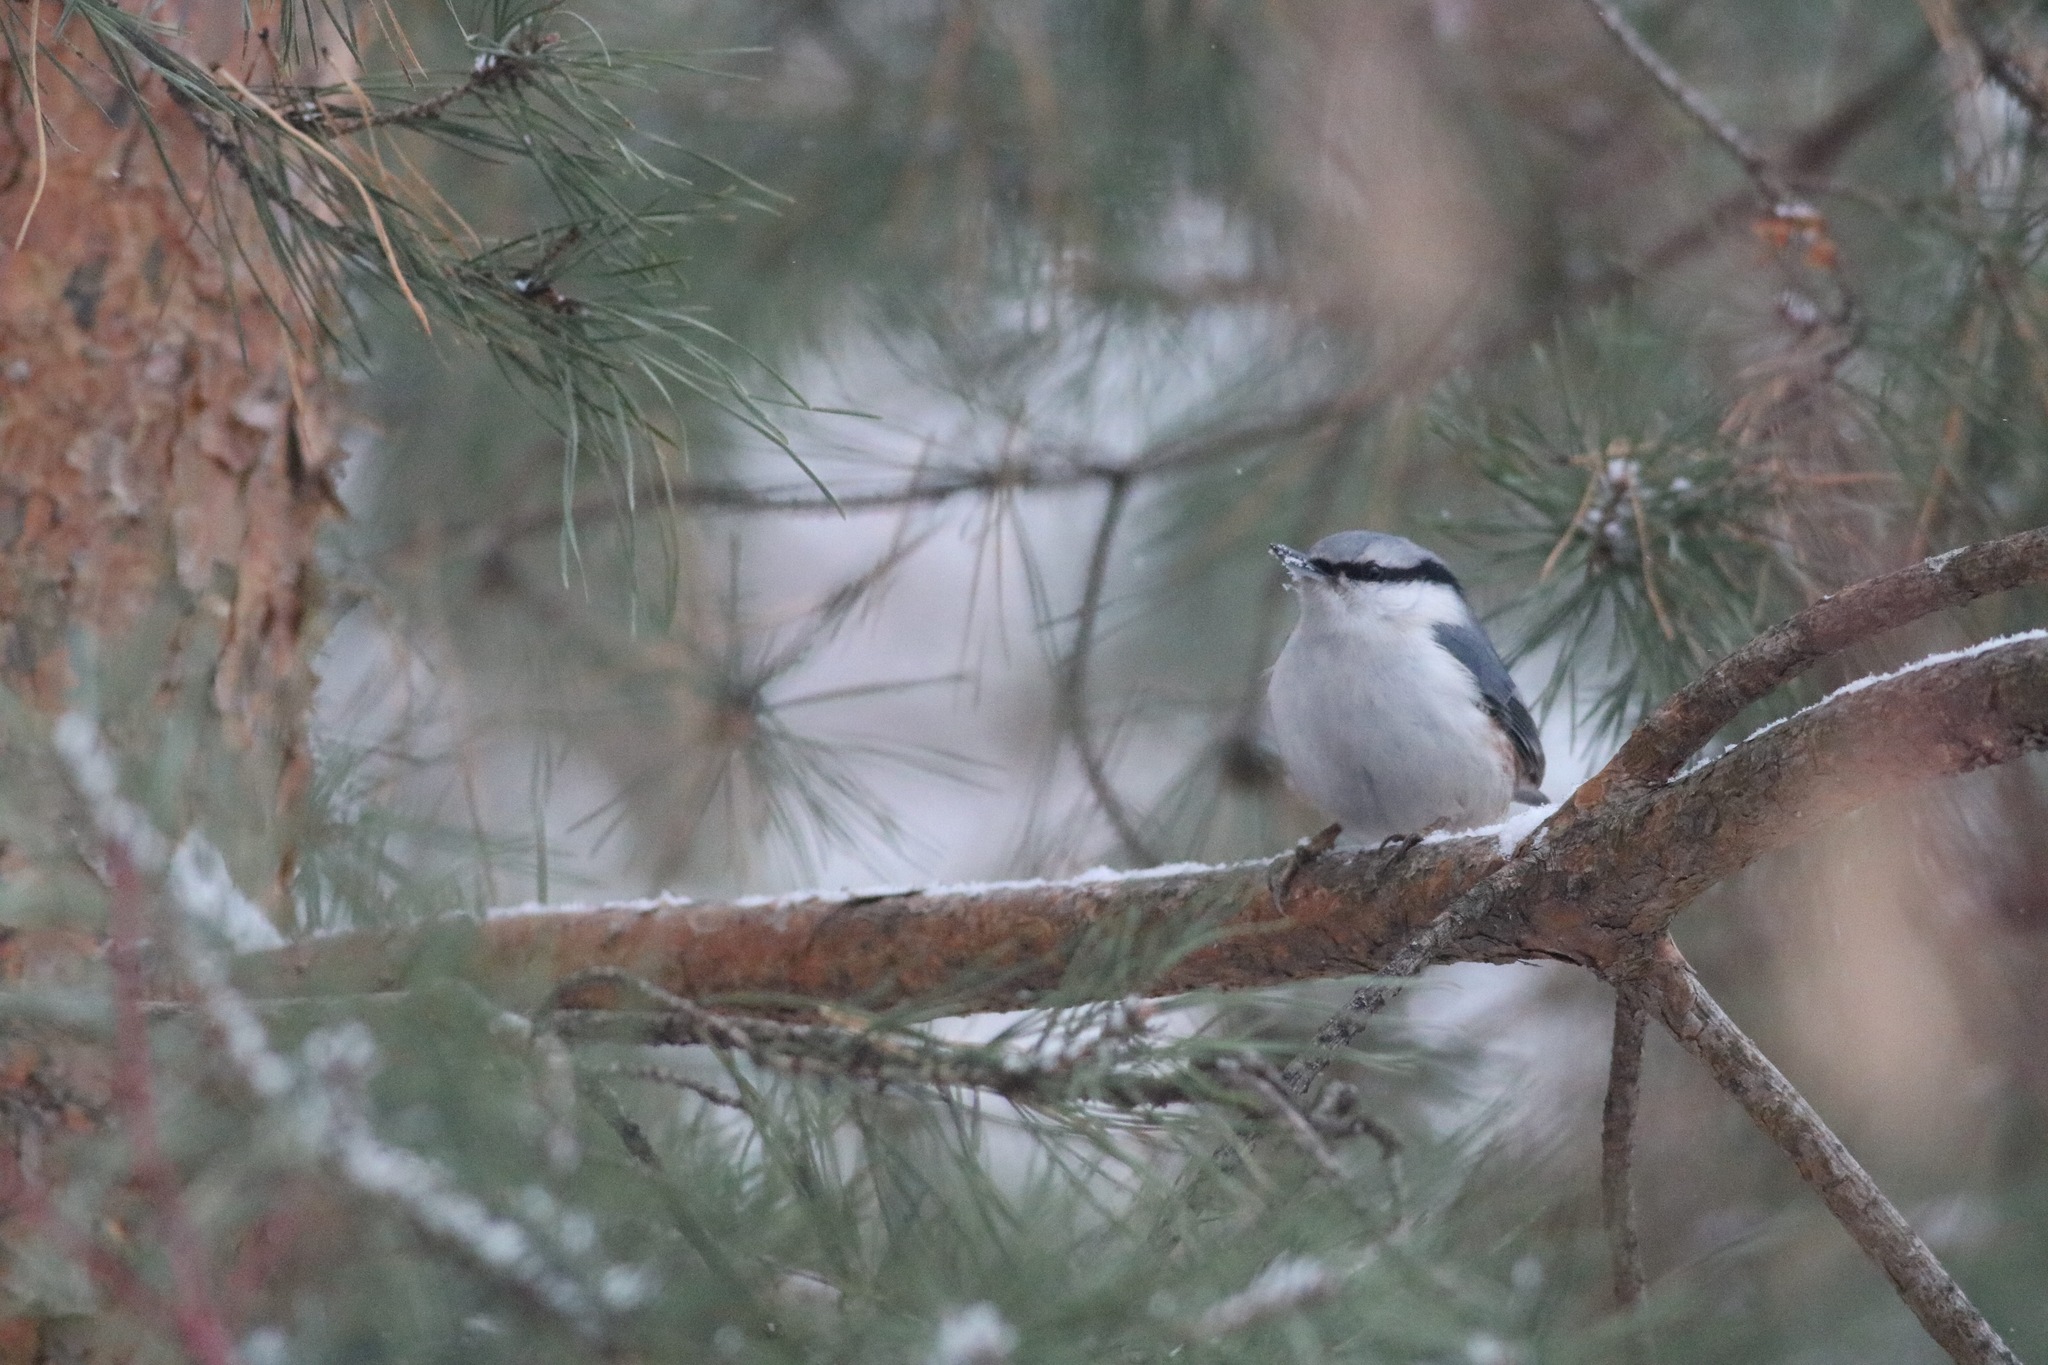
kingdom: Animalia
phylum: Chordata
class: Aves
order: Passeriformes
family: Sittidae
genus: Sitta
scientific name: Sitta europaea
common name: Eurasian nuthatch
